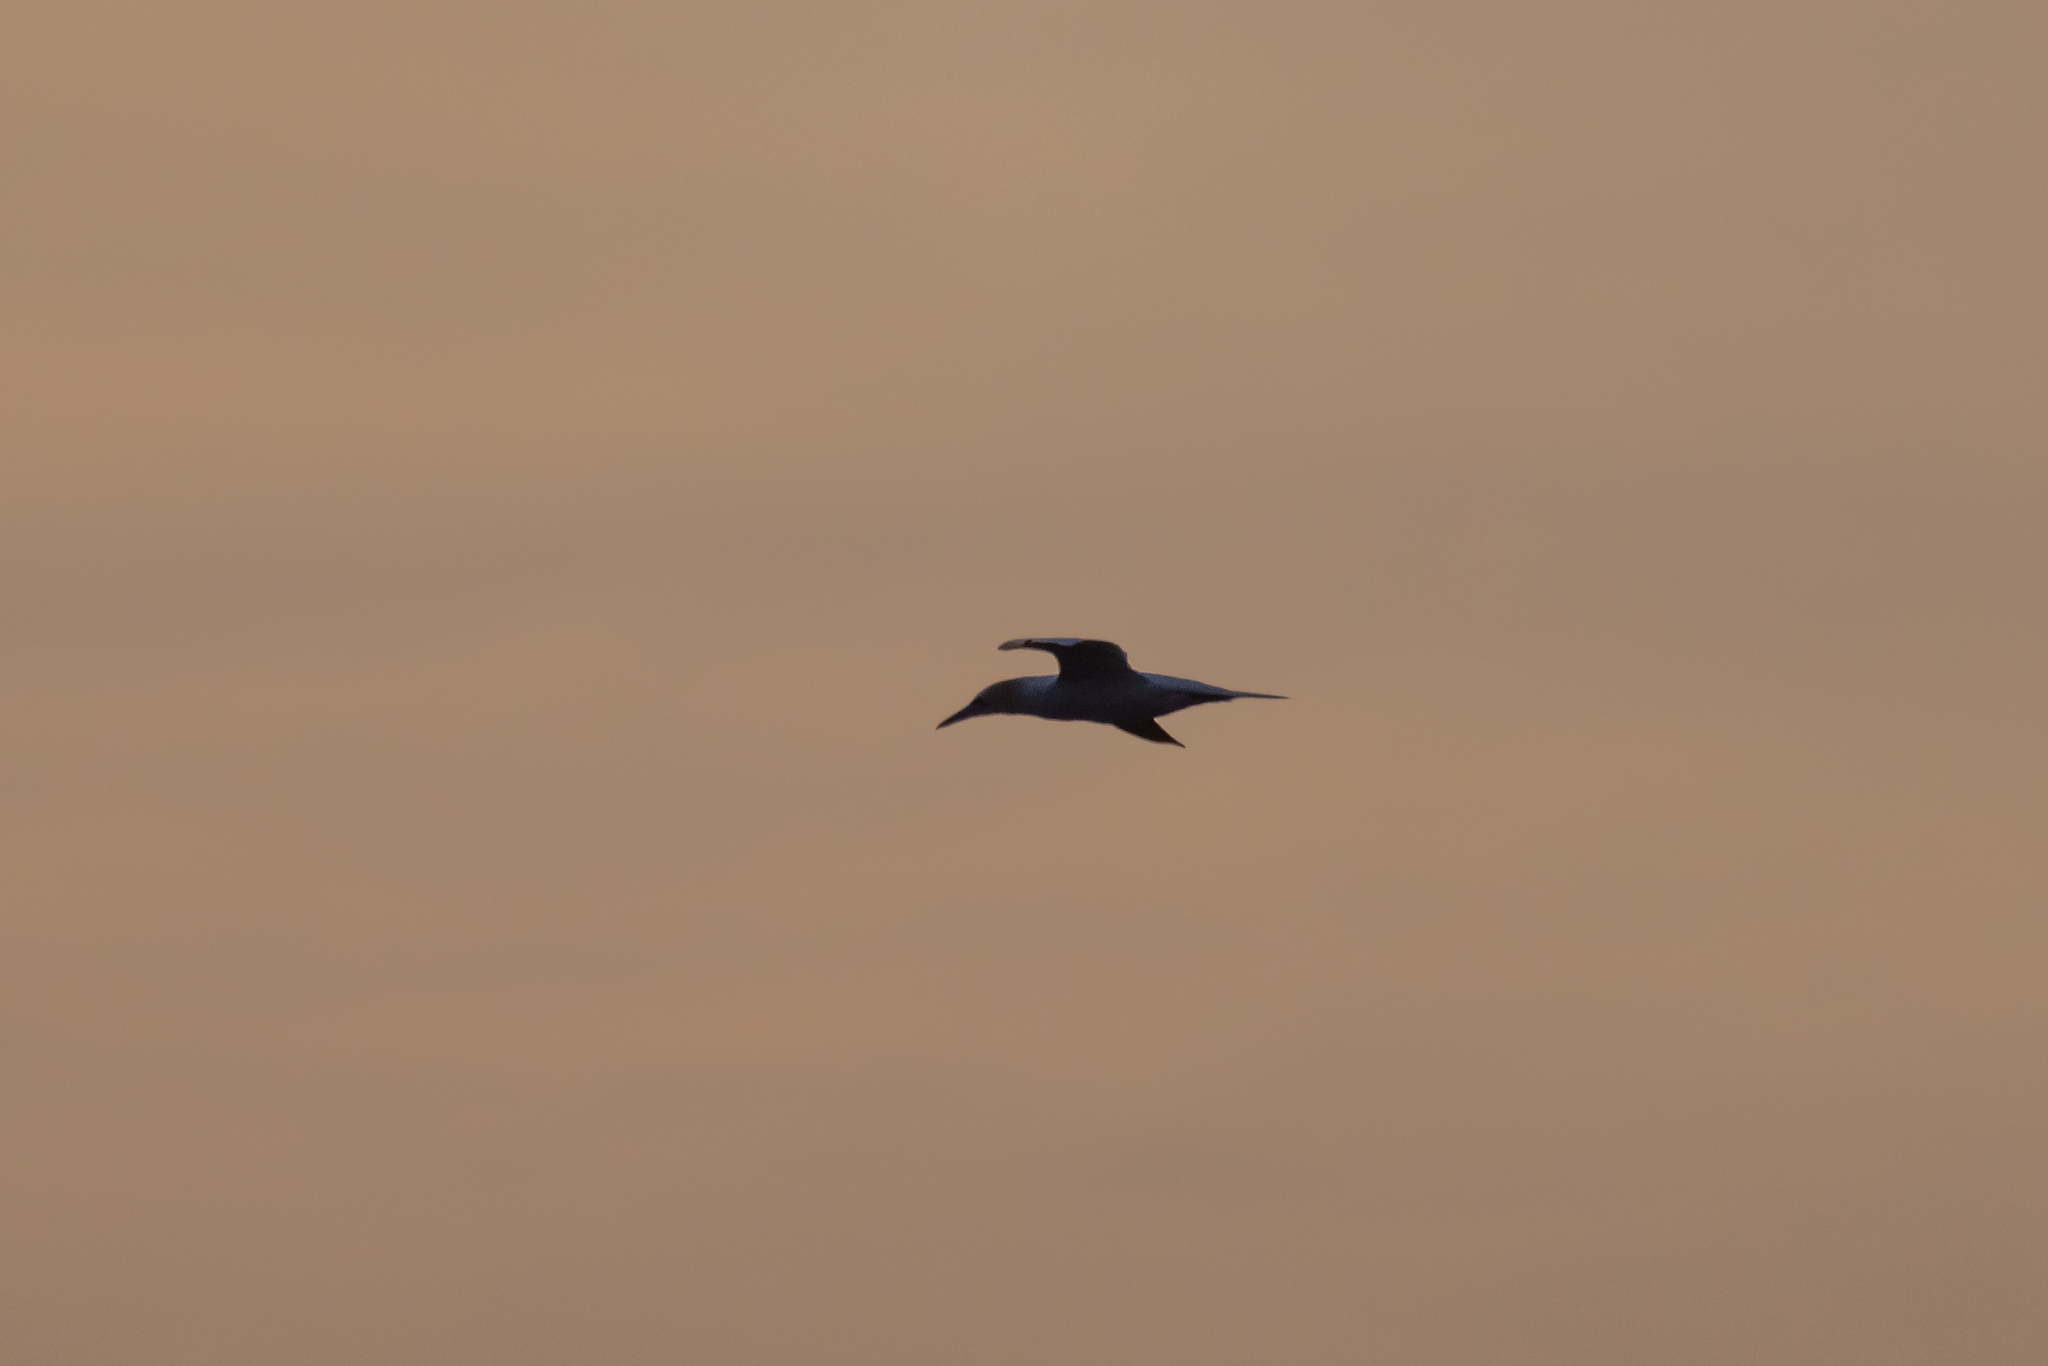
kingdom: Animalia
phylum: Chordata
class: Aves
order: Suliformes
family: Sulidae
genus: Morus
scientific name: Morus bassanus
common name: Northern gannet
